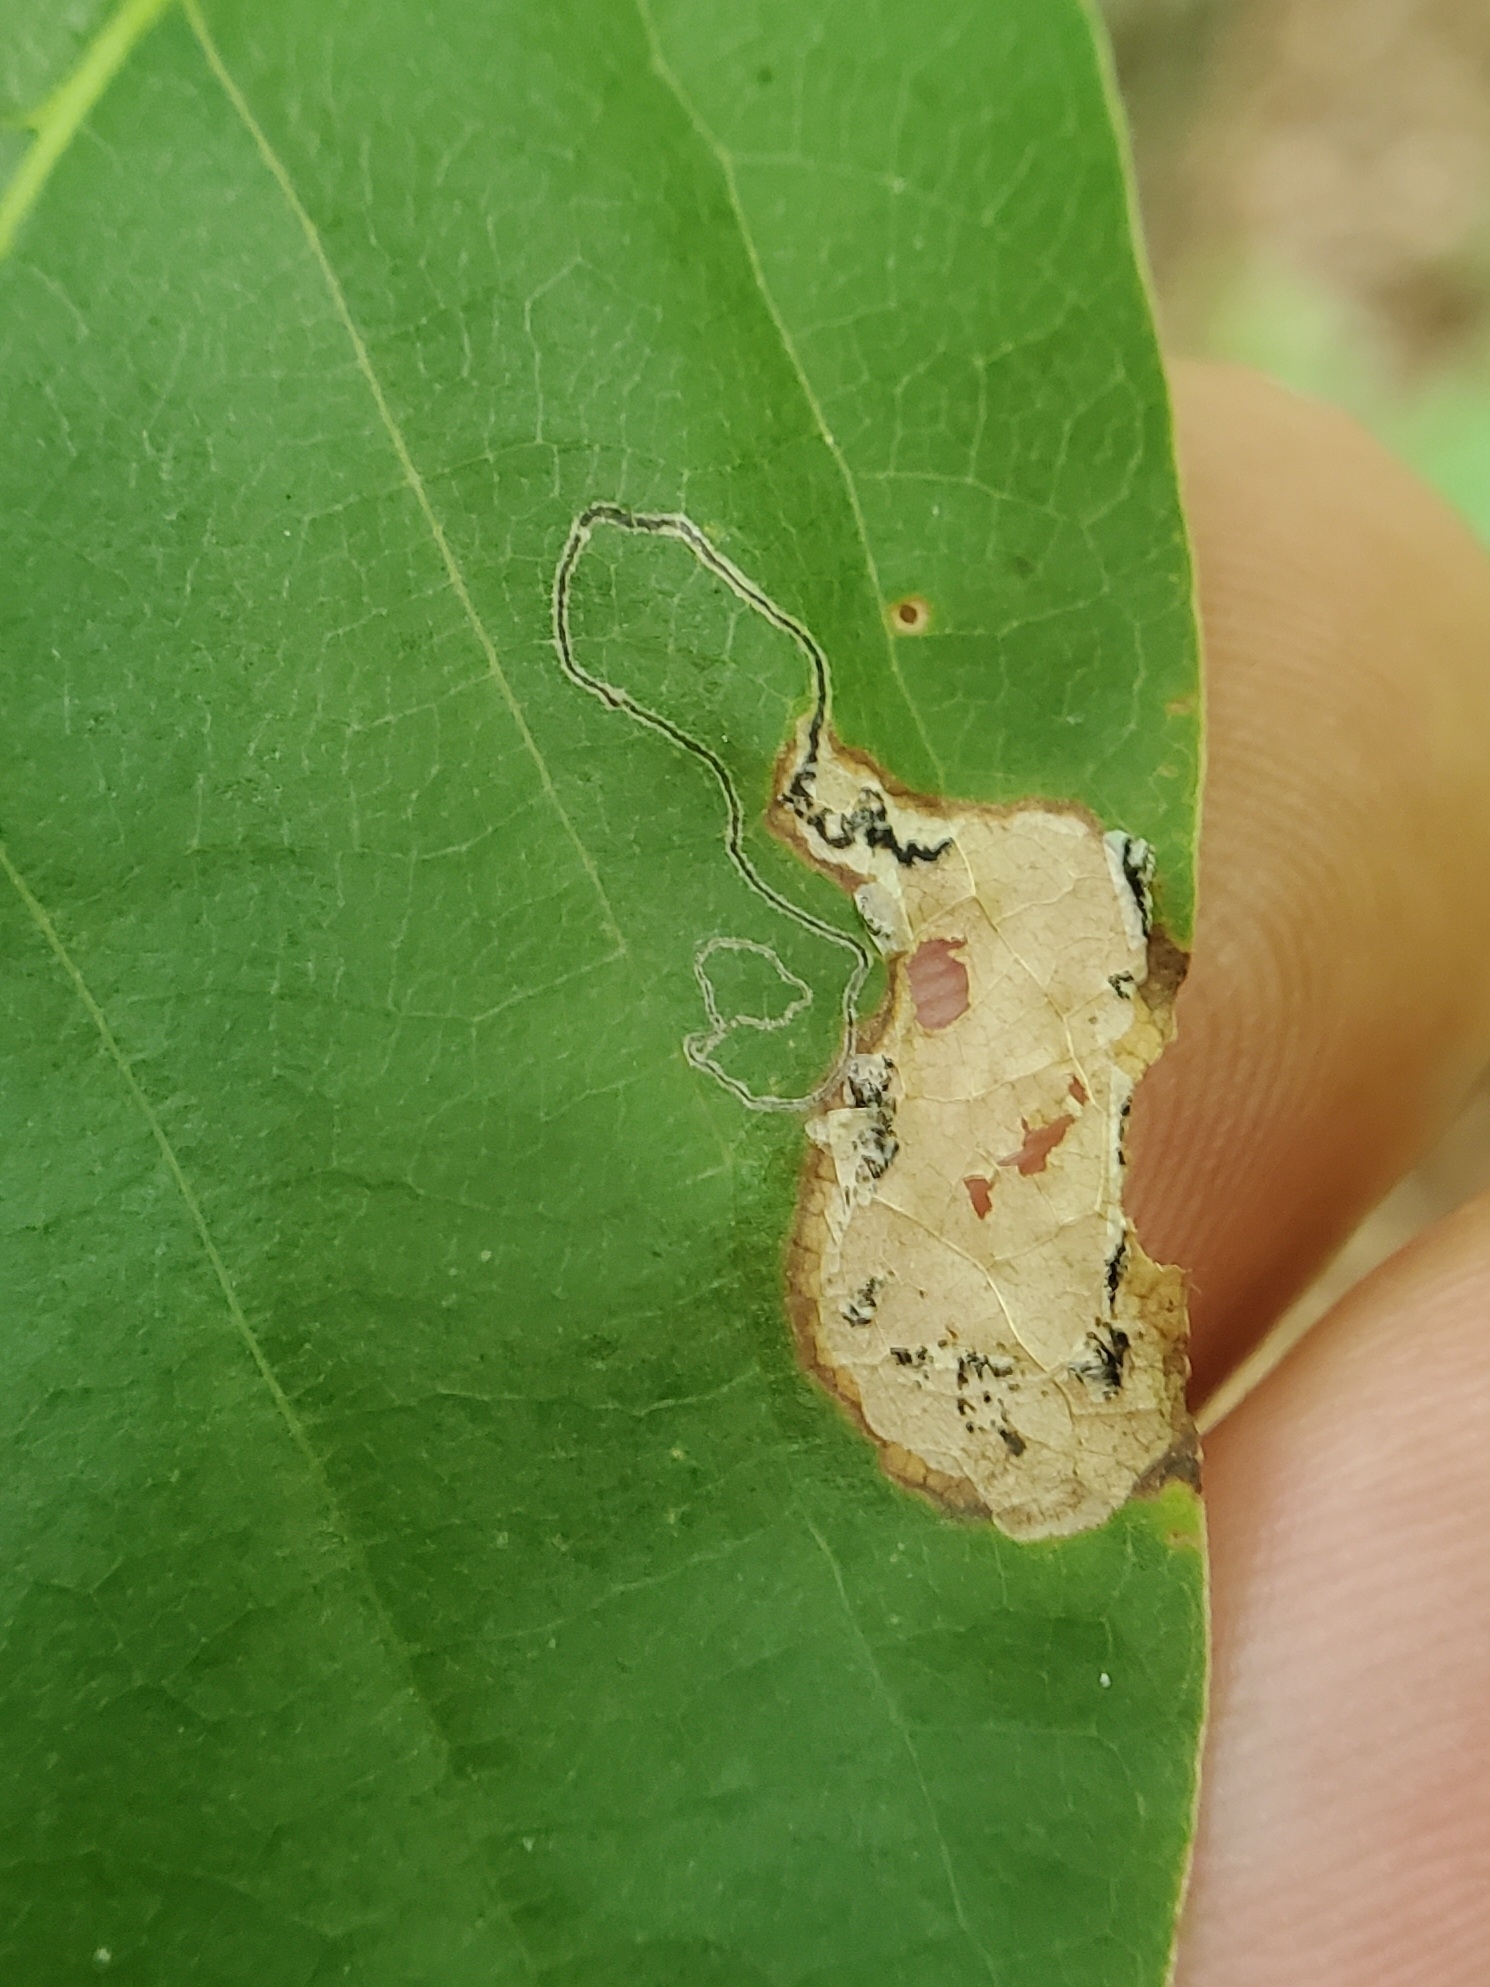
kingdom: Animalia
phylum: Arthropoda
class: Insecta
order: Lepidoptera
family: Nepticulidae
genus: Ectoedemia
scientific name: Ectoedemia nyssaefoliella
